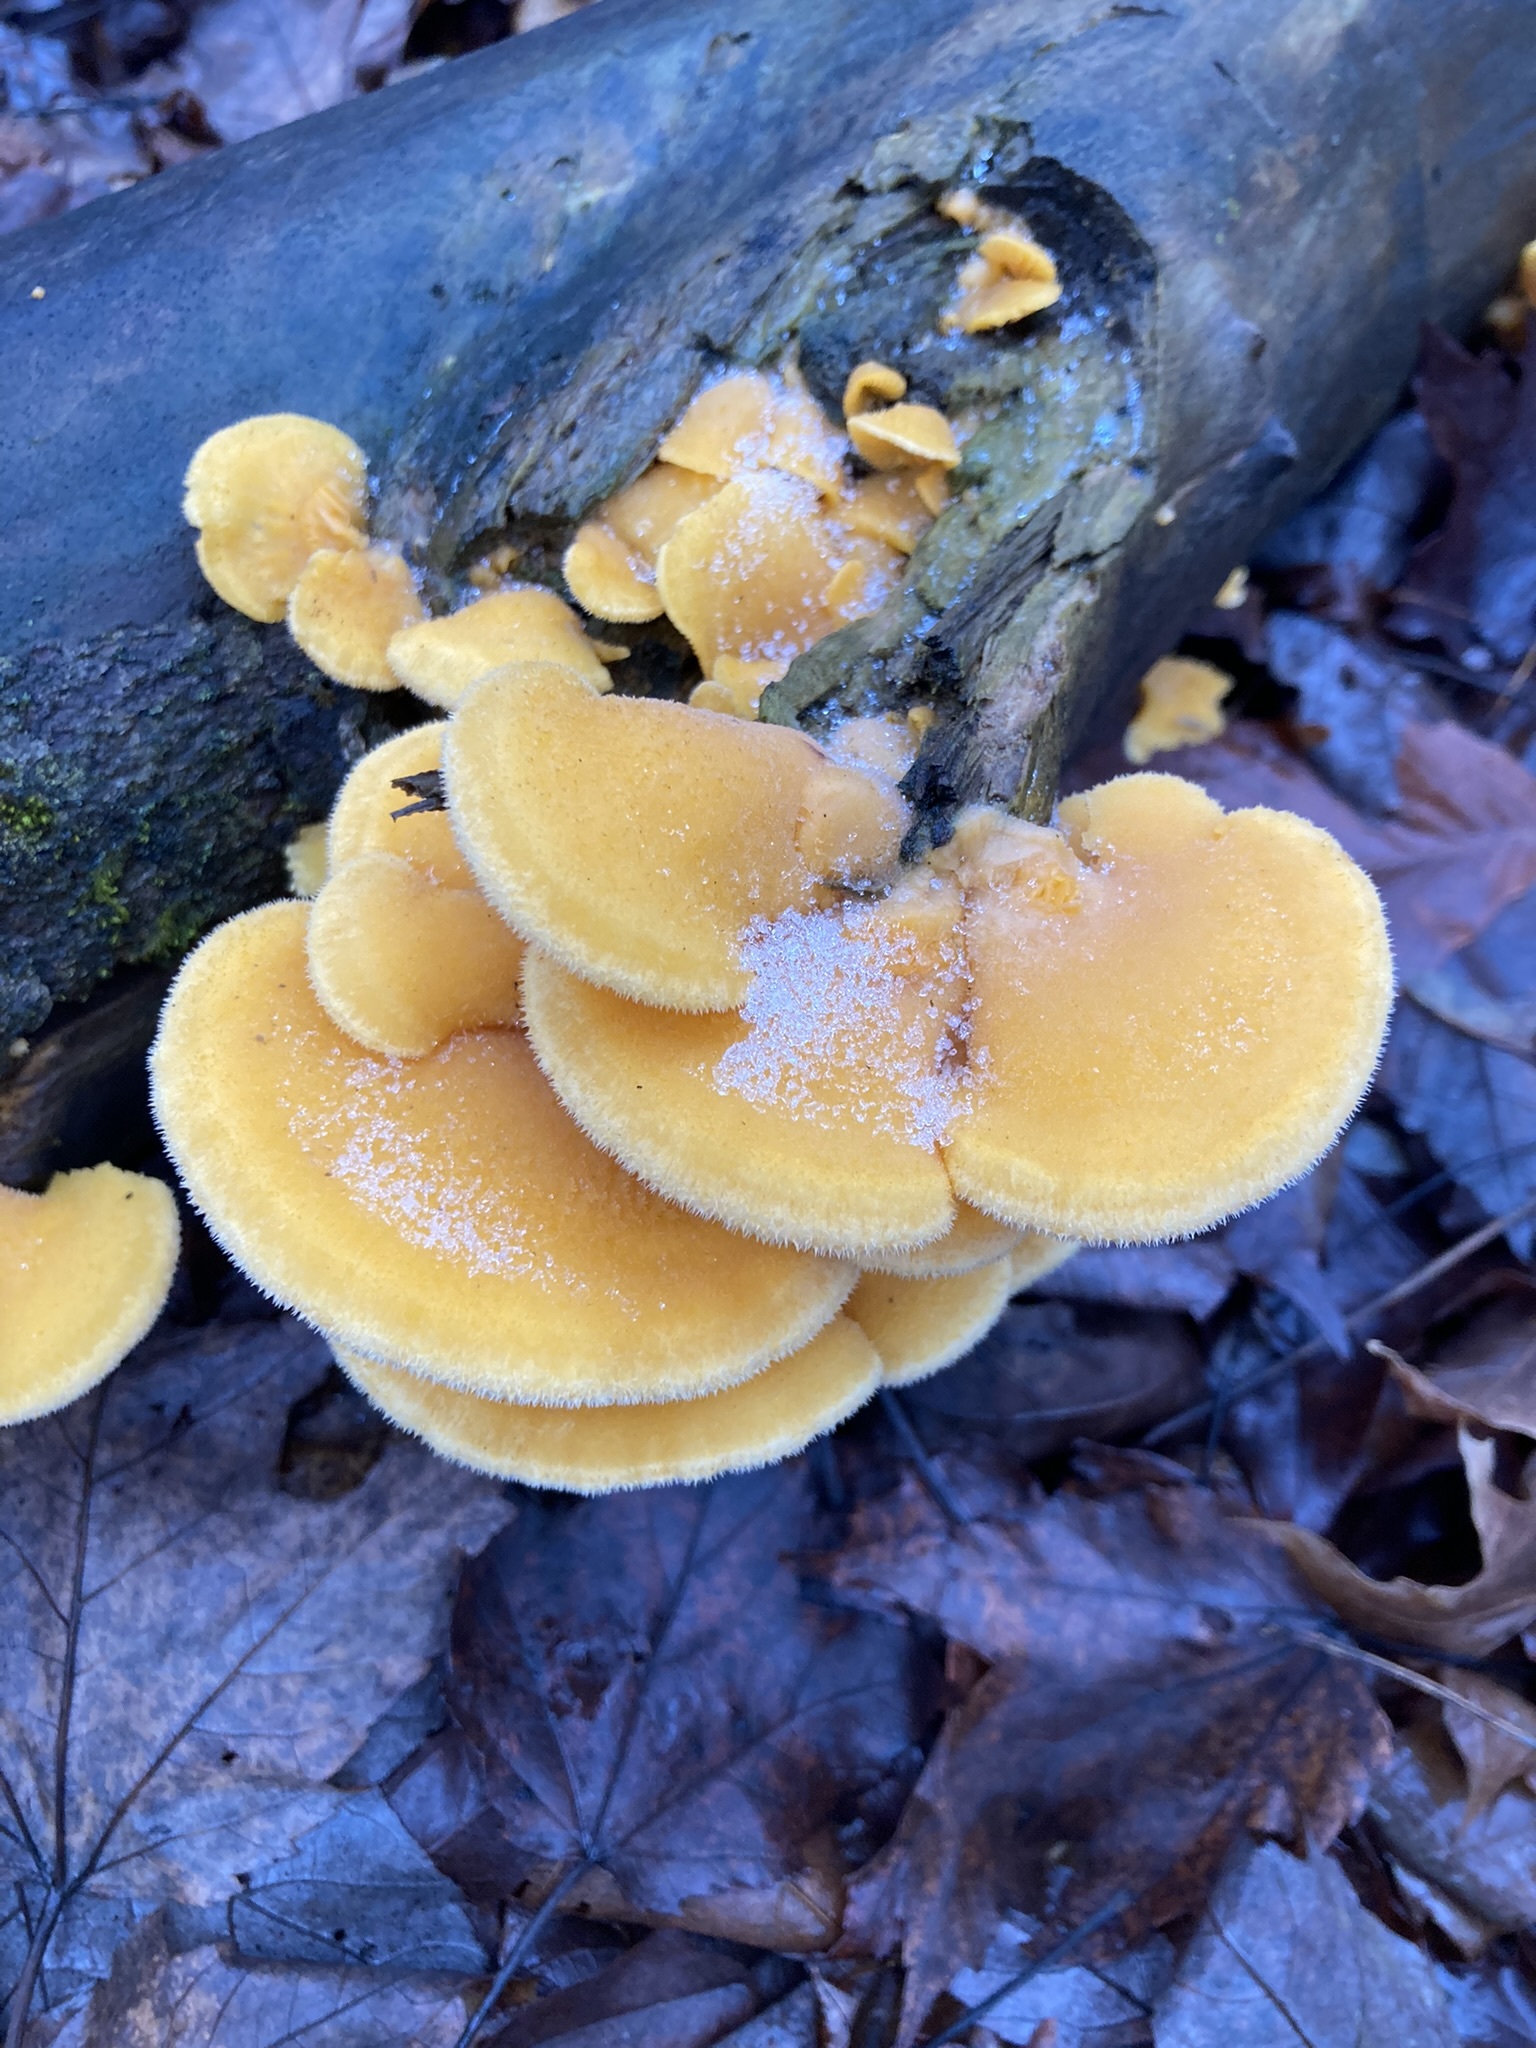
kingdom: Fungi
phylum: Basidiomycota
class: Agaricomycetes
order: Agaricales
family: Phyllotopsidaceae
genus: Phyllotopsis
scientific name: Phyllotopsis nidulans
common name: Orange mock oyster
